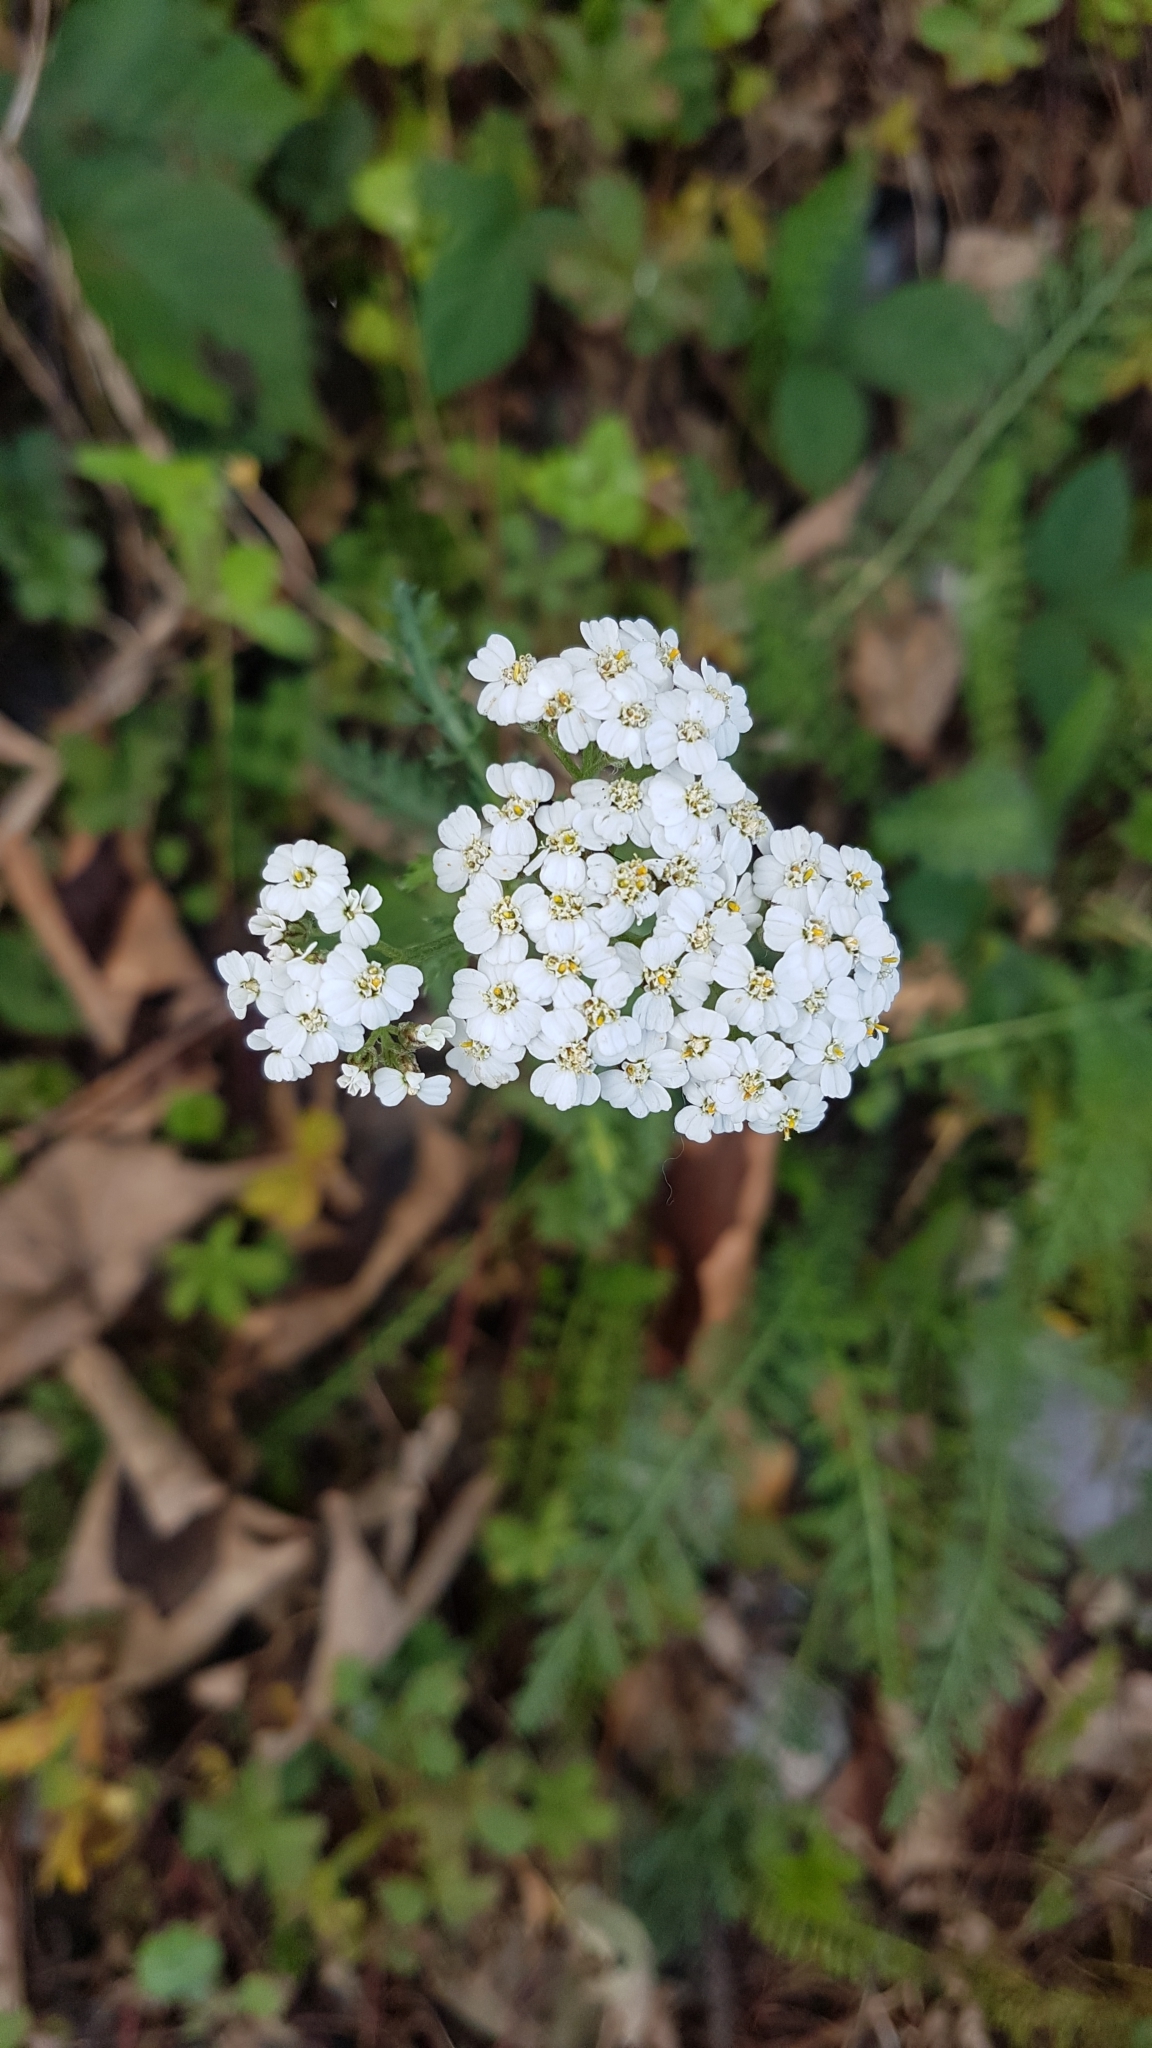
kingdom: Plantae
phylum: Tracheophyta
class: Magnoliopsida
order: Asterales
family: Asteraceae
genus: Achillea
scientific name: Achillea millefolium
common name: Yarrow
